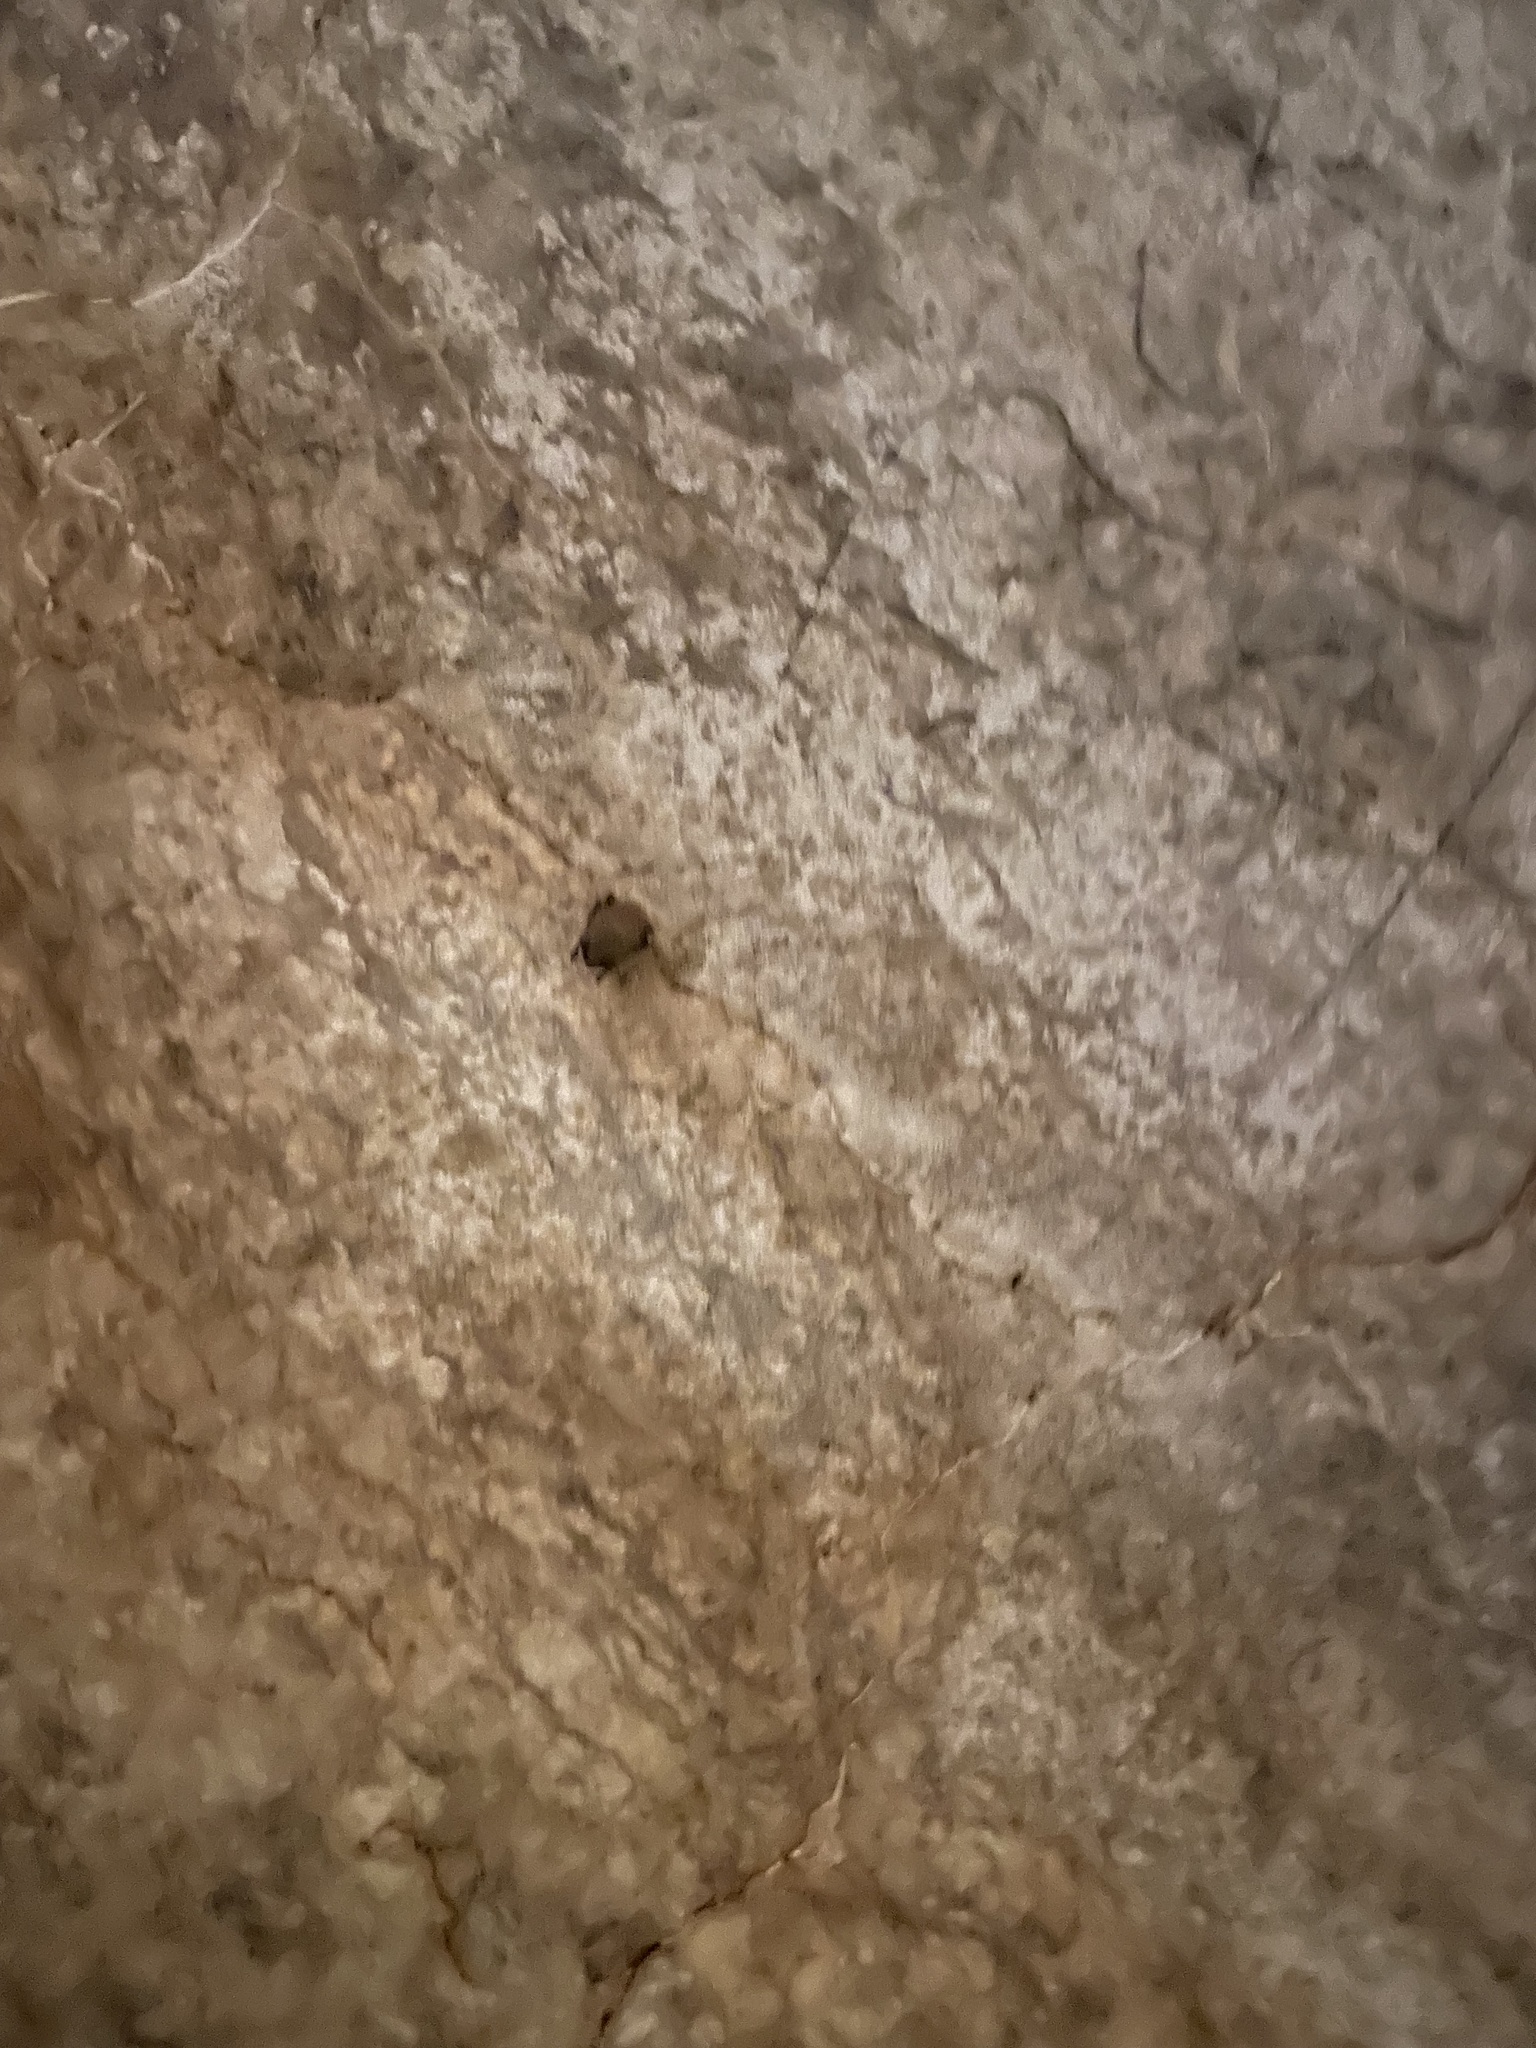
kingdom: Animalia
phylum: Chordata
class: Mammalia
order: Chiroptera
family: Vespertilionidae
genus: Perimyotis
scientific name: Perimyotis subflavus
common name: Eastern pipistrelle
